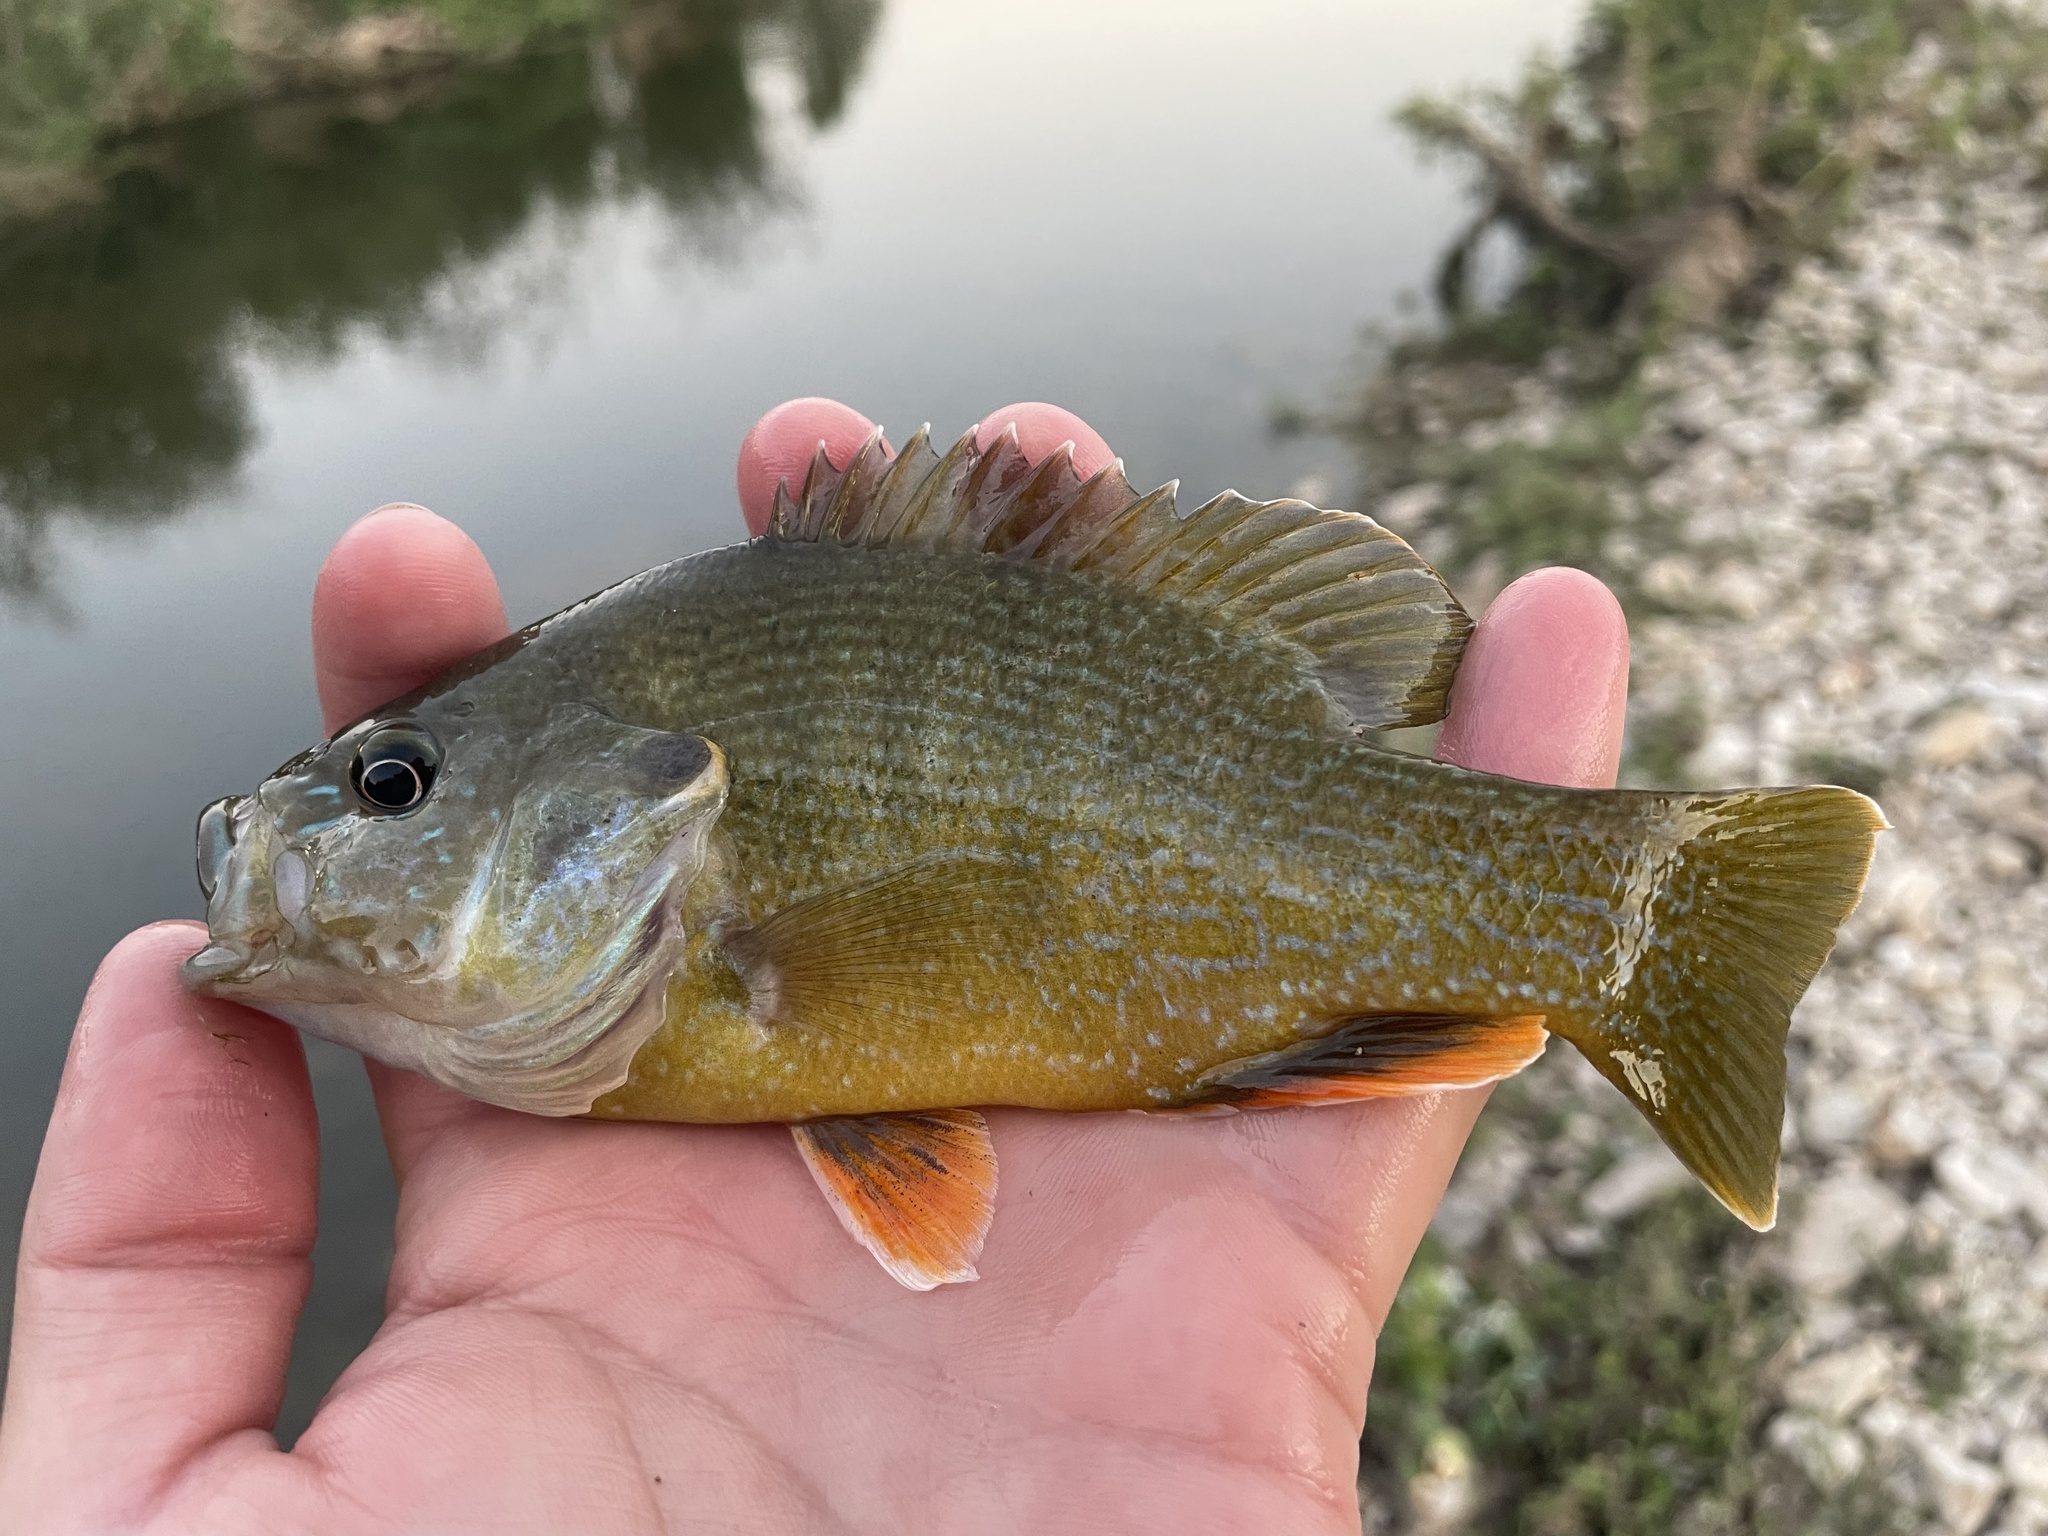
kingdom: Animalia
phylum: Chordata
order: Perciformes
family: Centrarchidae
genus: Lepomis
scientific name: Lepomis cyanellus
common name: Green sunfish
